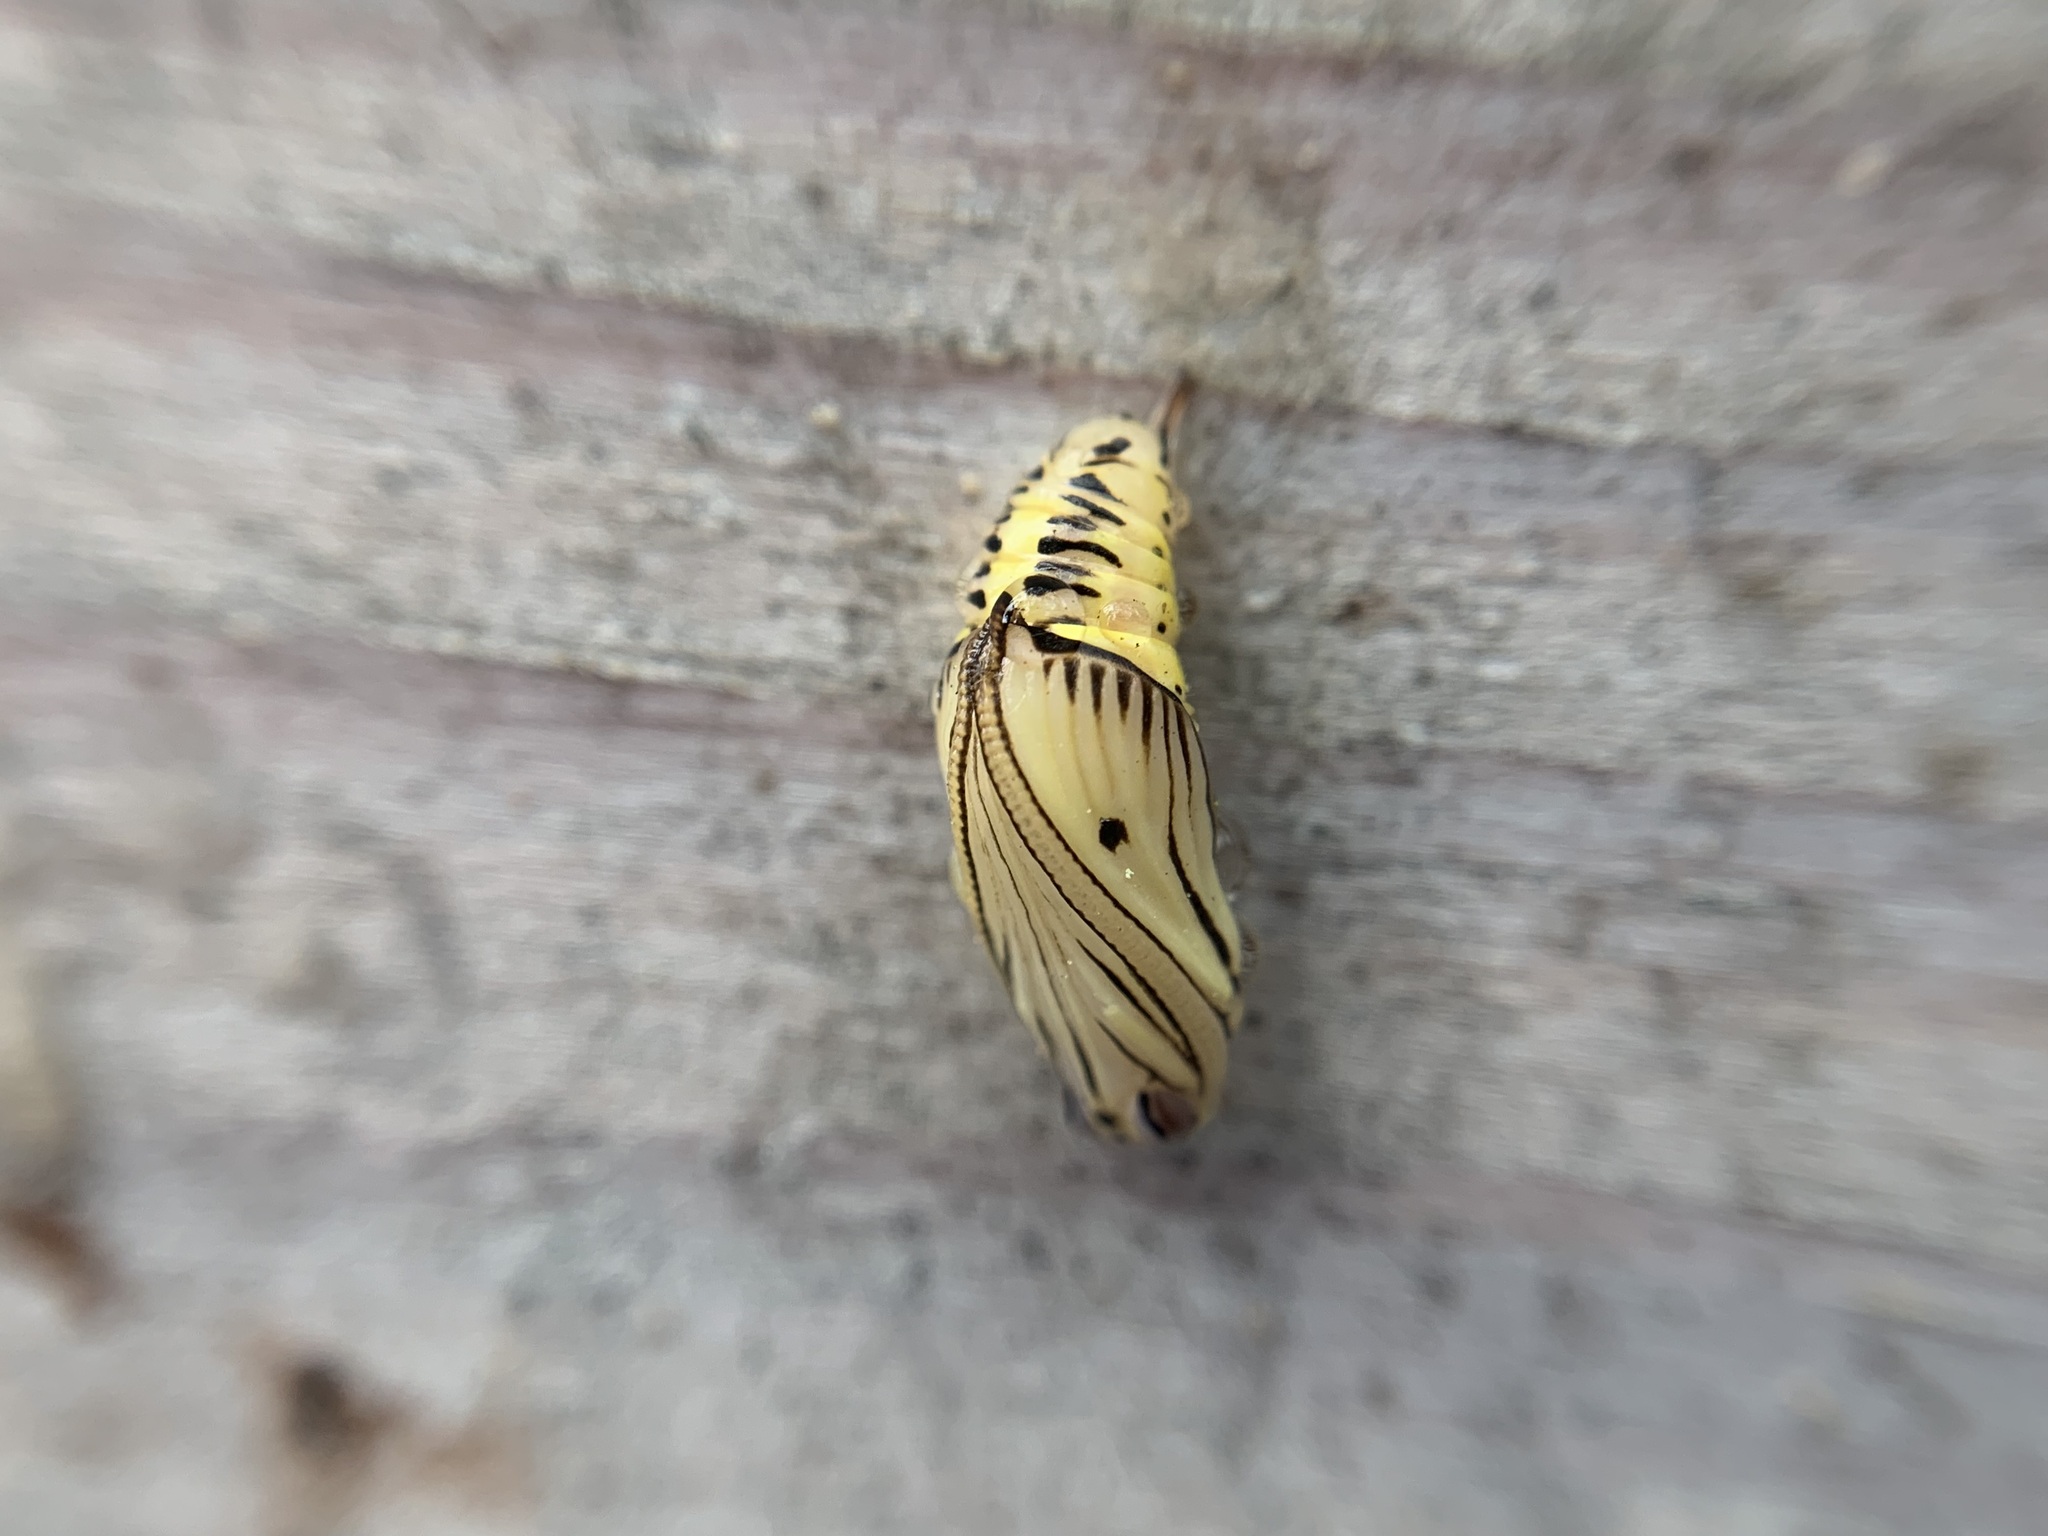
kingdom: Animalia
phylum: Arthropoda
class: Insecta
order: Lepidoptera
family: Notodontidae
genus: Phryganidia
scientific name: Phryganidia californica
